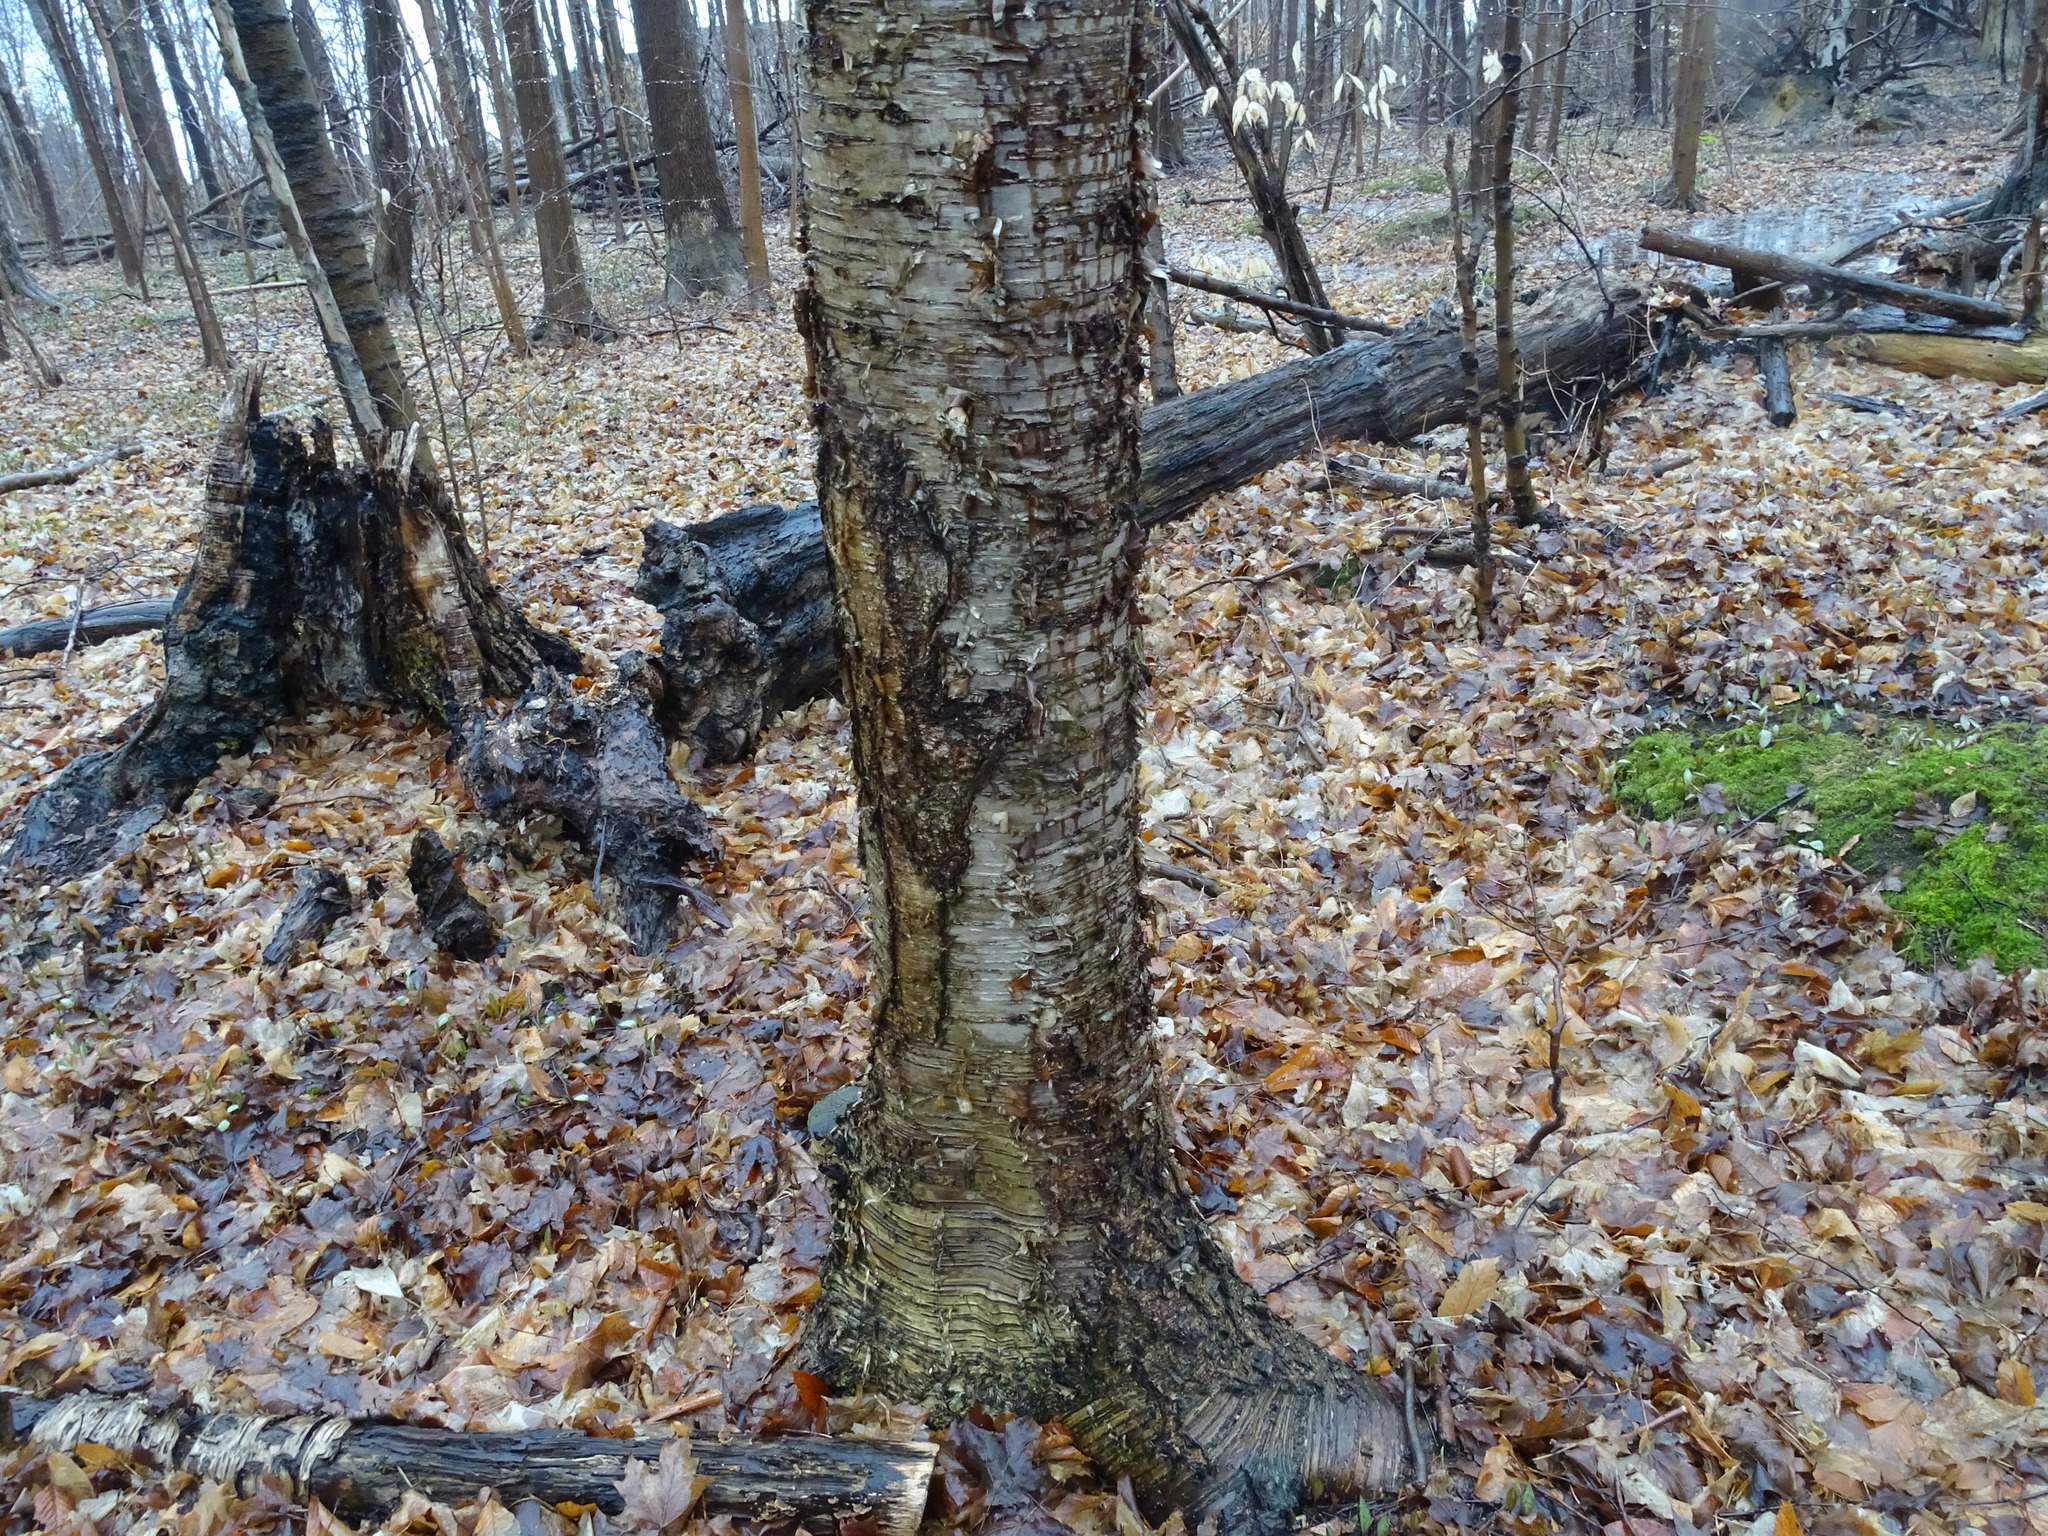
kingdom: Plantae
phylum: Tracheophyta
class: Magnoliopsida
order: Fagales
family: Betulaceae
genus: Betula
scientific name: Betula alleghaniensis
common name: Yellow birch
